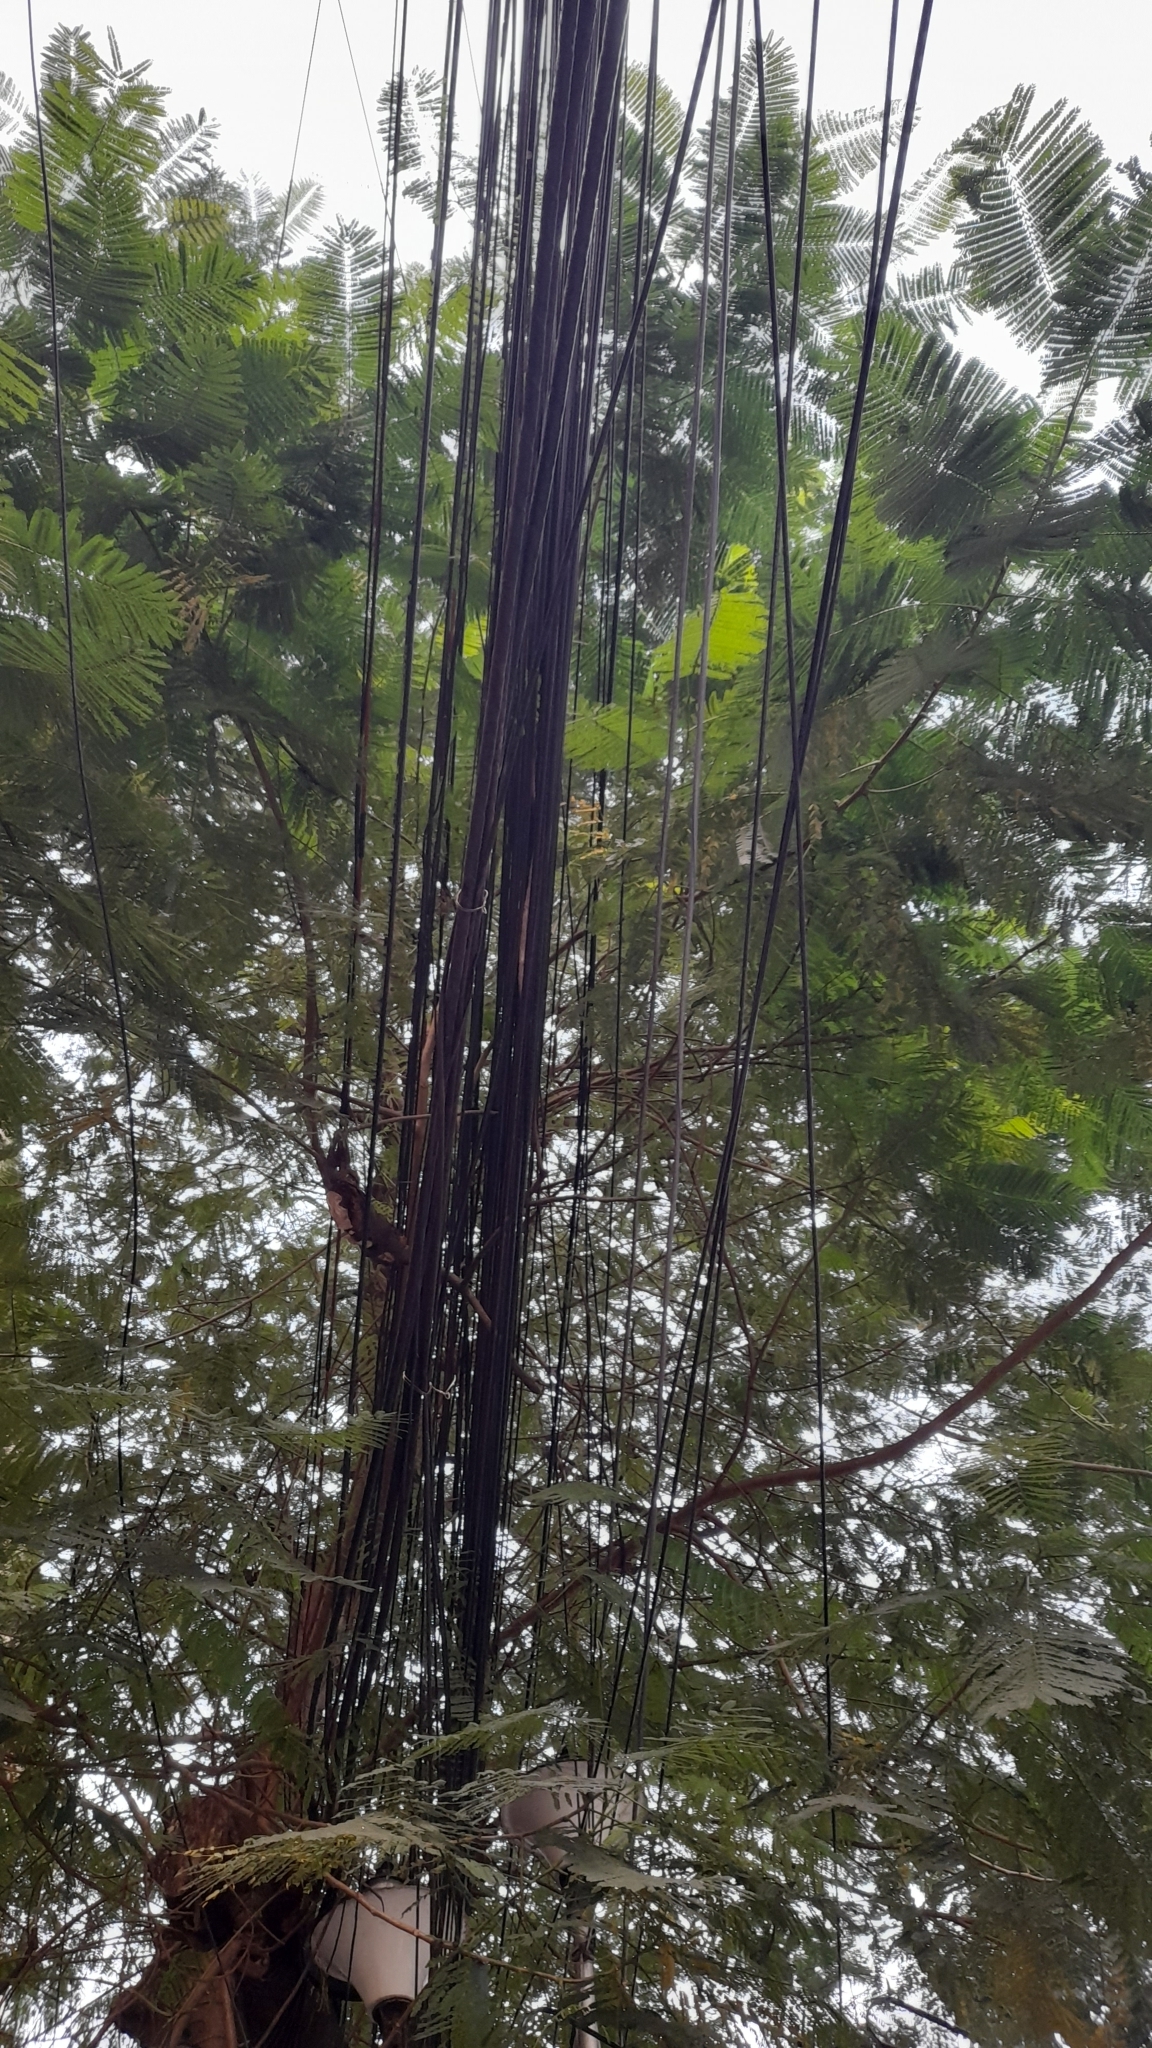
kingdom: Plantae
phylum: Tracheophyta
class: Magnoliopsida
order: Fabales
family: Fabaceae
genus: Delonix
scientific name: Delonix regia
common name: Royal poinciana
